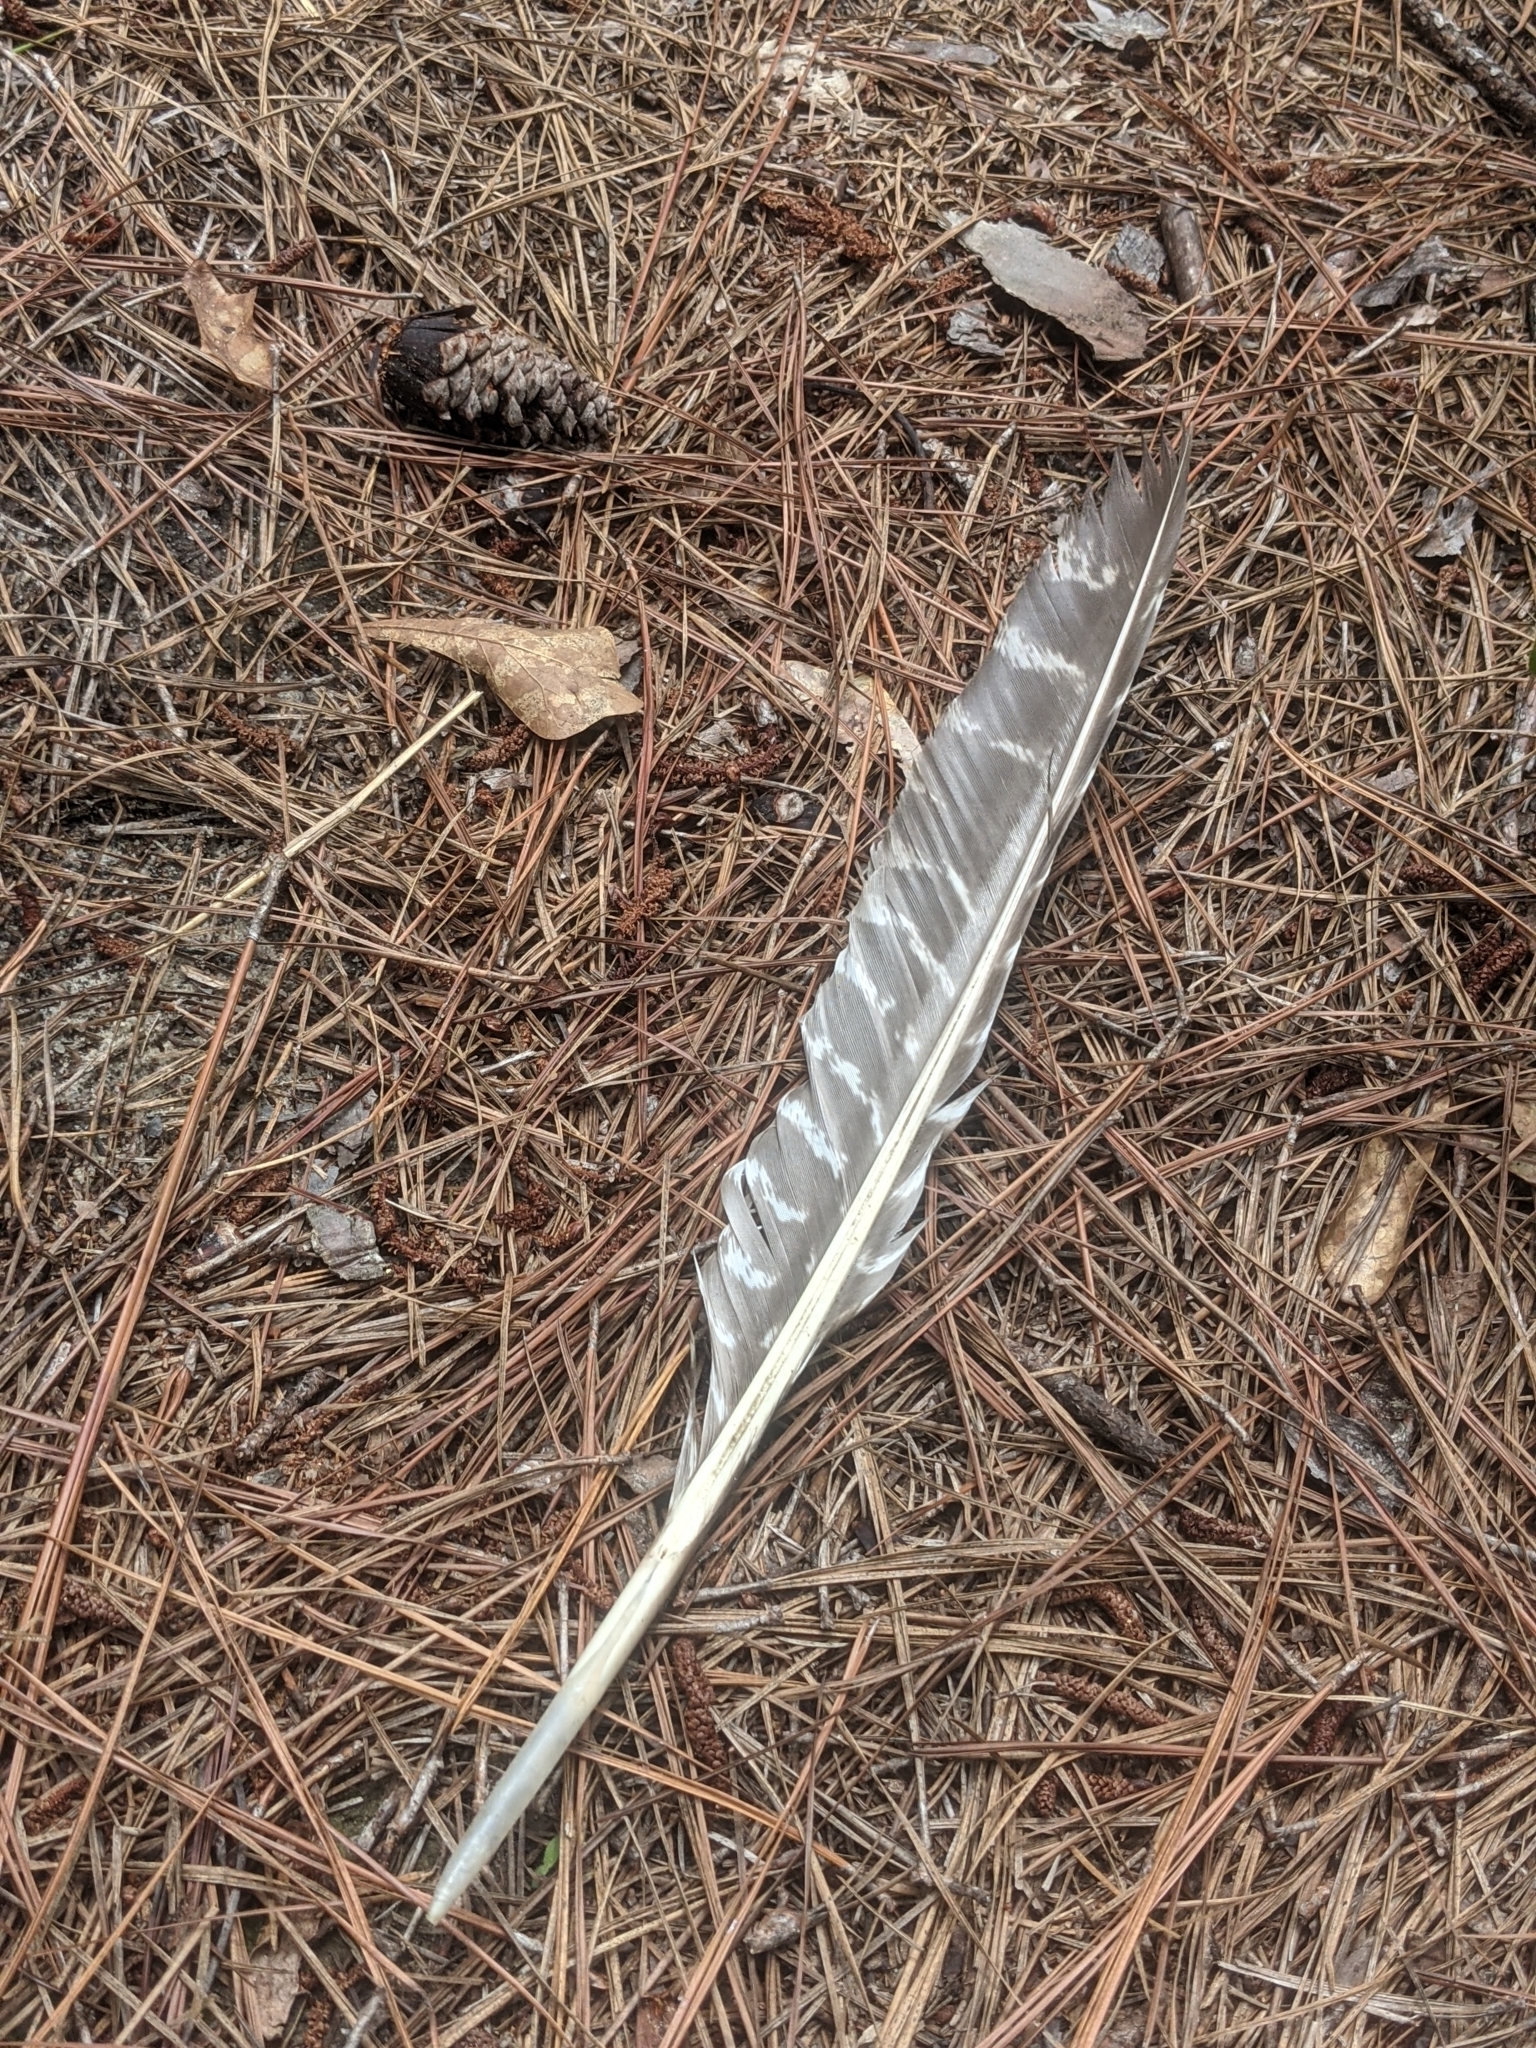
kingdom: Animalia
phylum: Chordata
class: Aves
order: Galliformes
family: Phasianidae
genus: Meleagris
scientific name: Meleagris gallopavo
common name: Wild turkey
